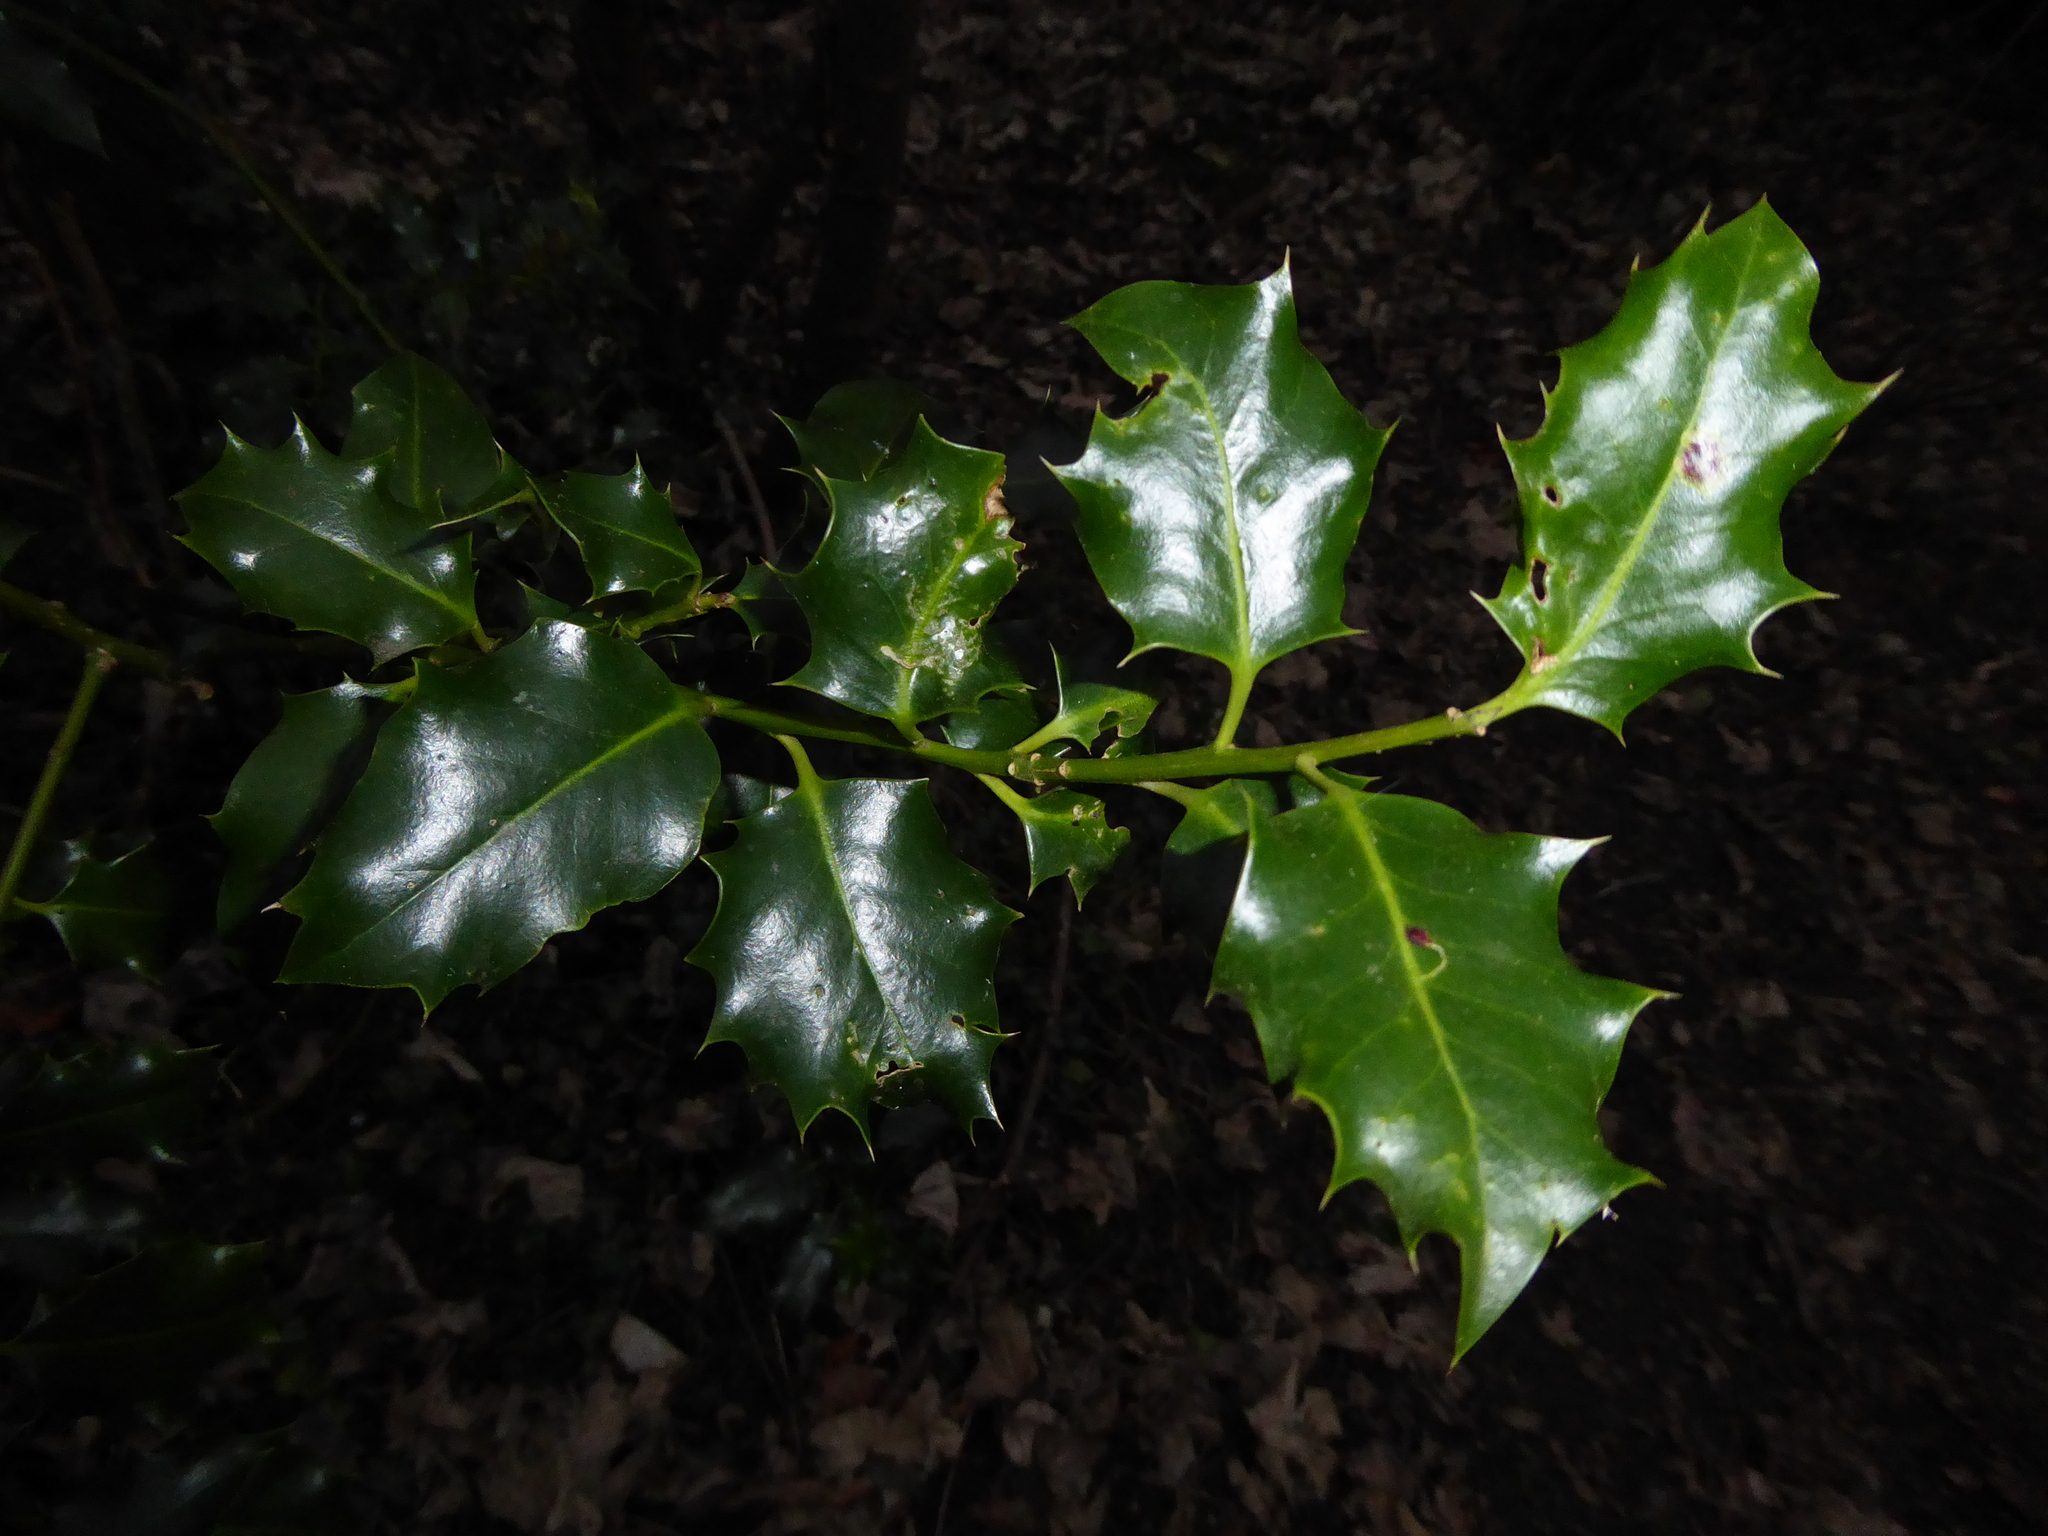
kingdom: Plantae
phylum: Tracheophyta
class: Magnoliopsida
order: Aquifoliales
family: Aquifoliaceae
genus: Ilex
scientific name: Ilex aquifolium
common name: English holly
